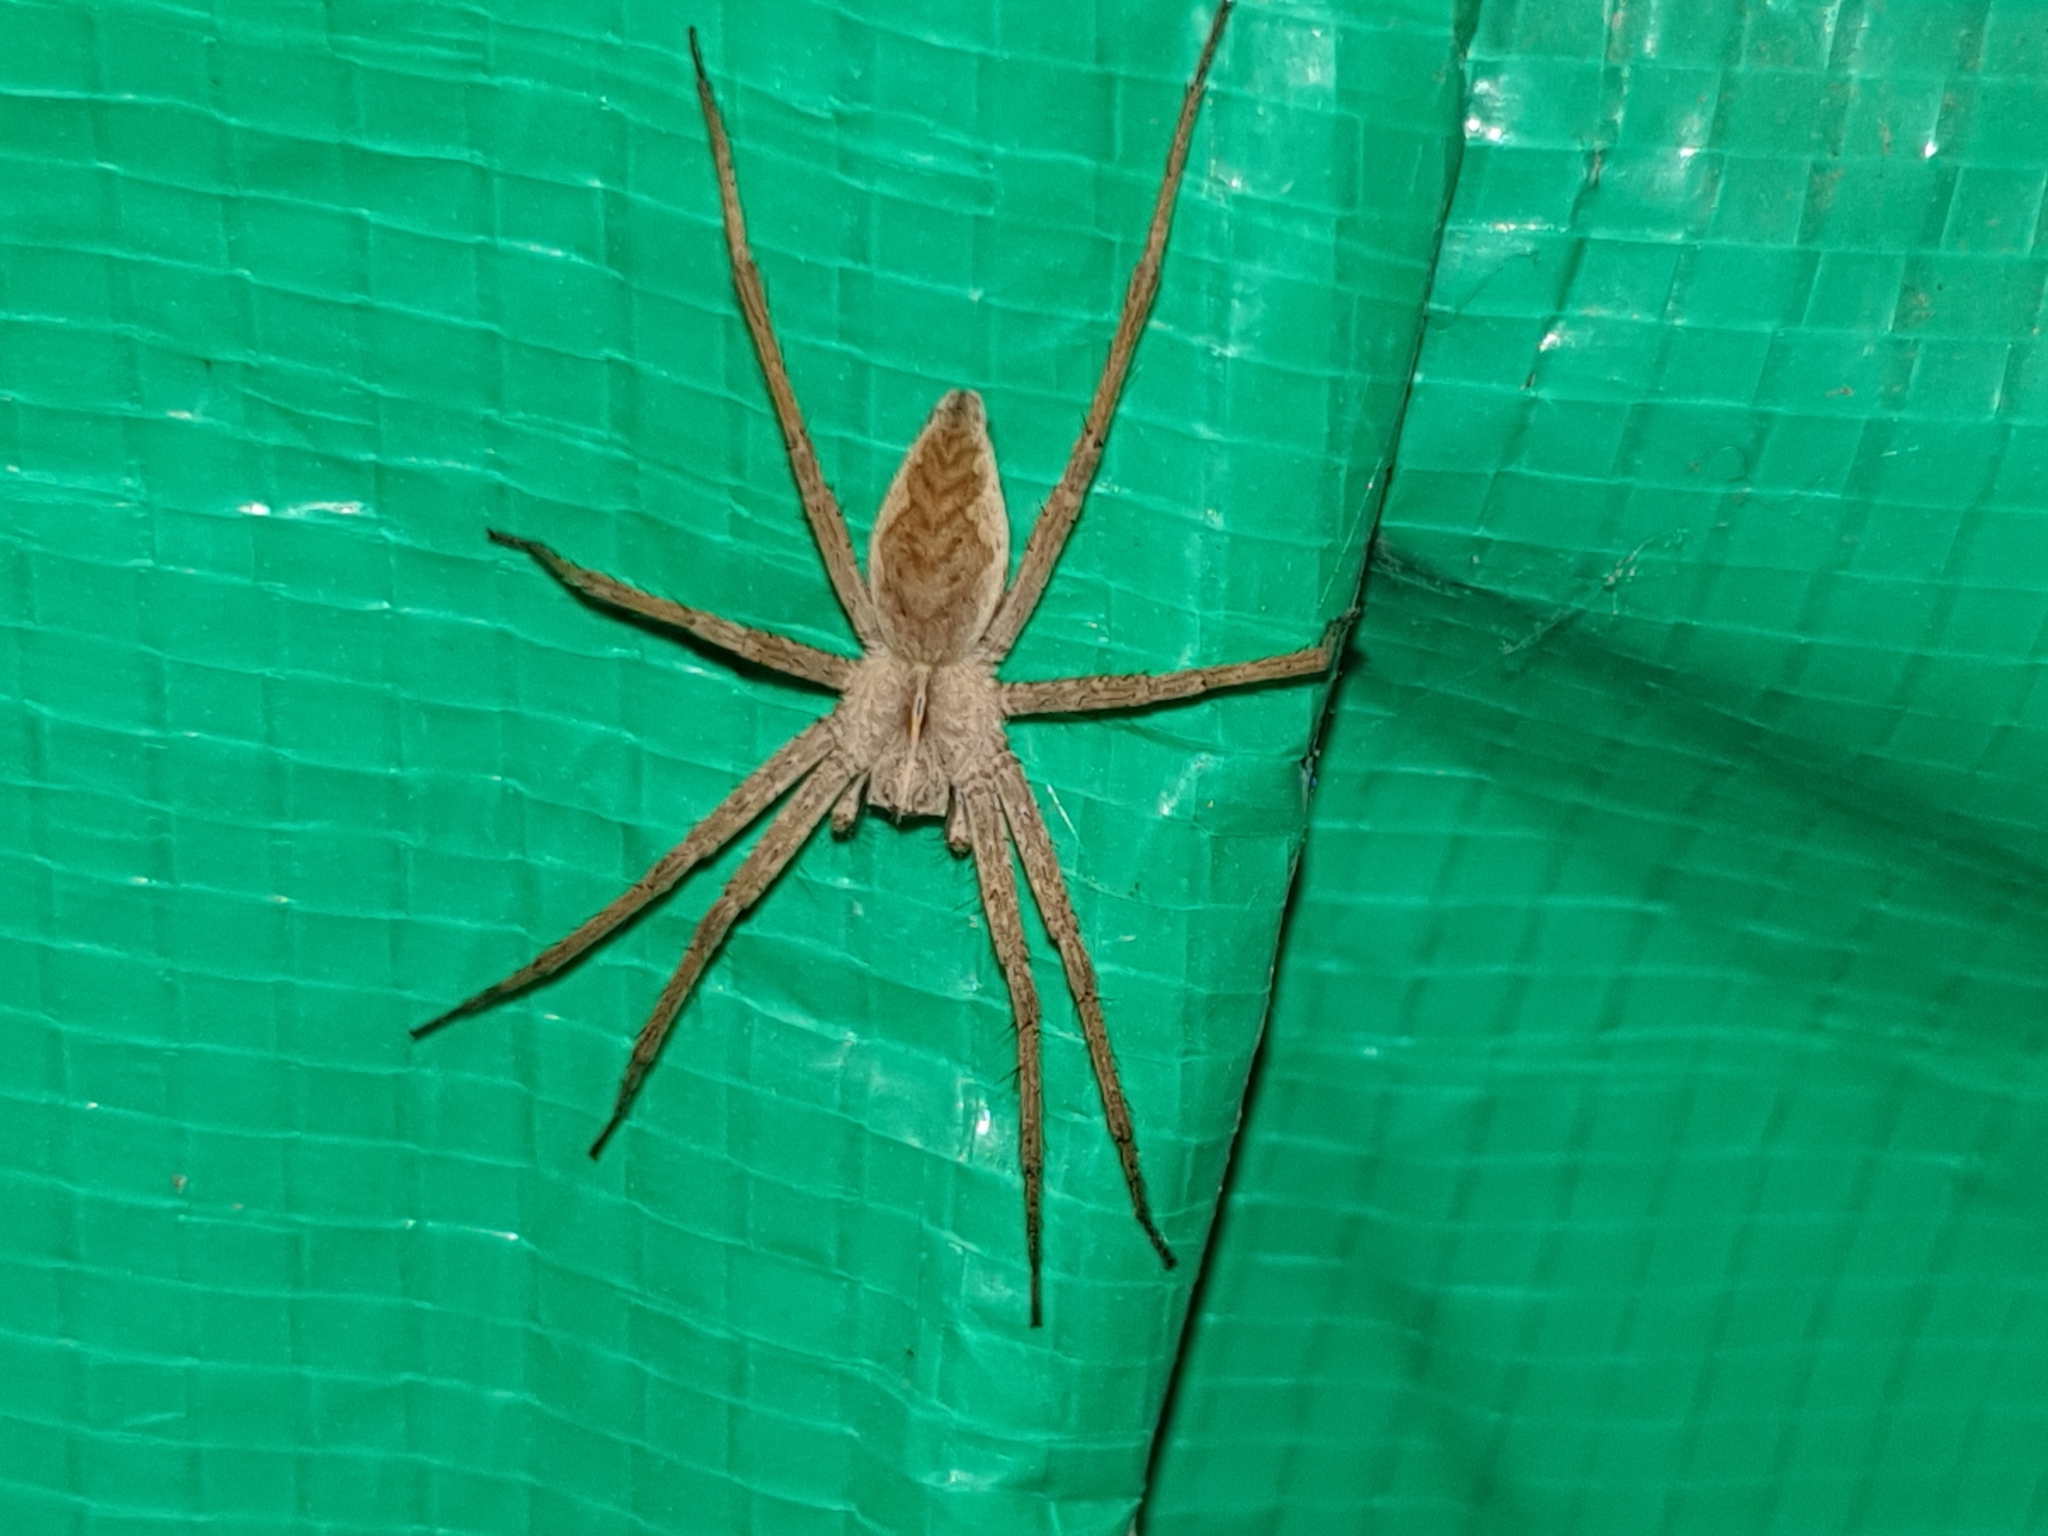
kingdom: Animalia
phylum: Arthropoda
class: Arachnida
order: Araneae
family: Pisauridae
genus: Pisaura
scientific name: Pisaura
